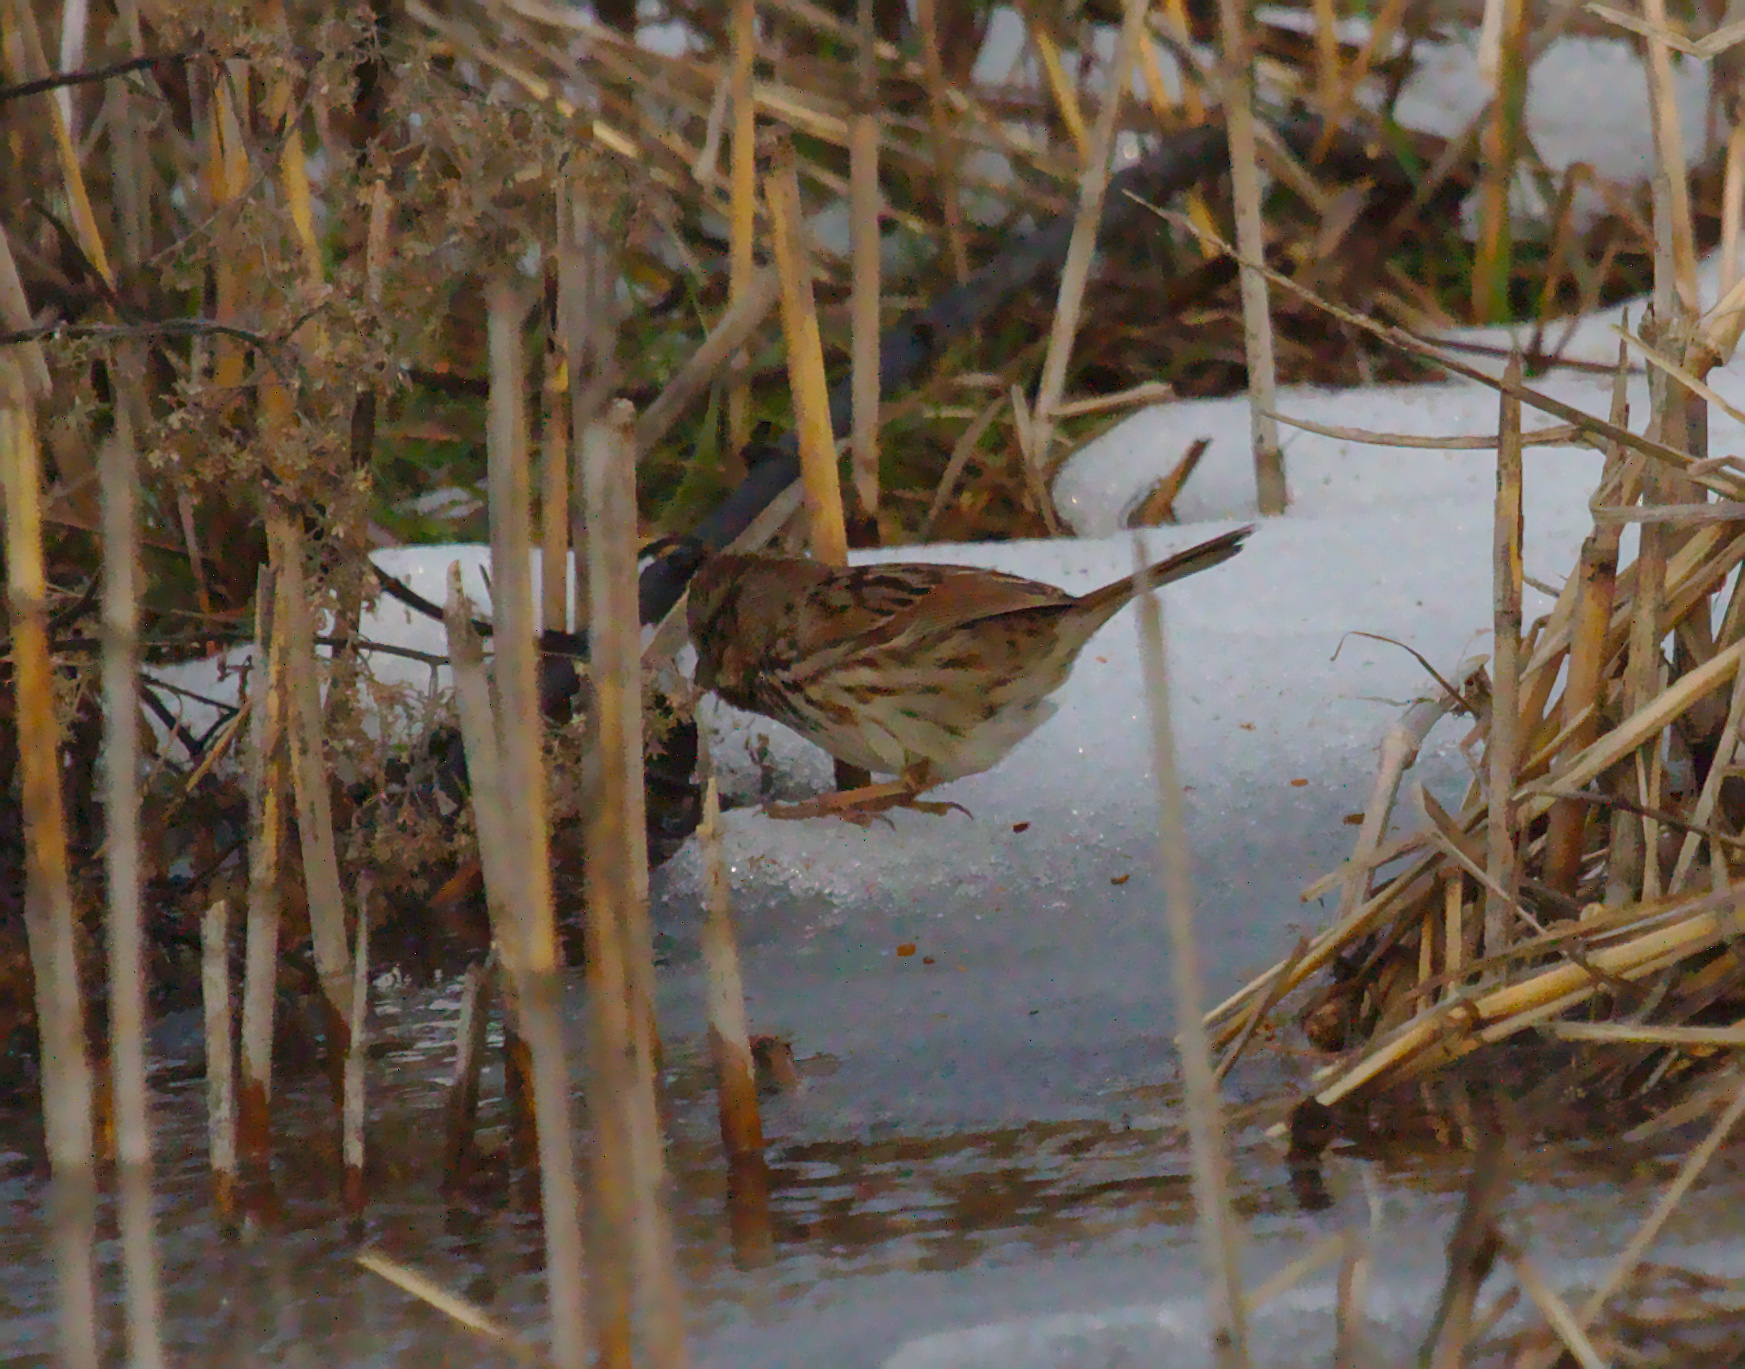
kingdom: Animalia
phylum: Chordata
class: Aves
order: Passeriformes
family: Passerellidae
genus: Melospiza
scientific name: Melospiza georgiana
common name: Swamp sparrow
